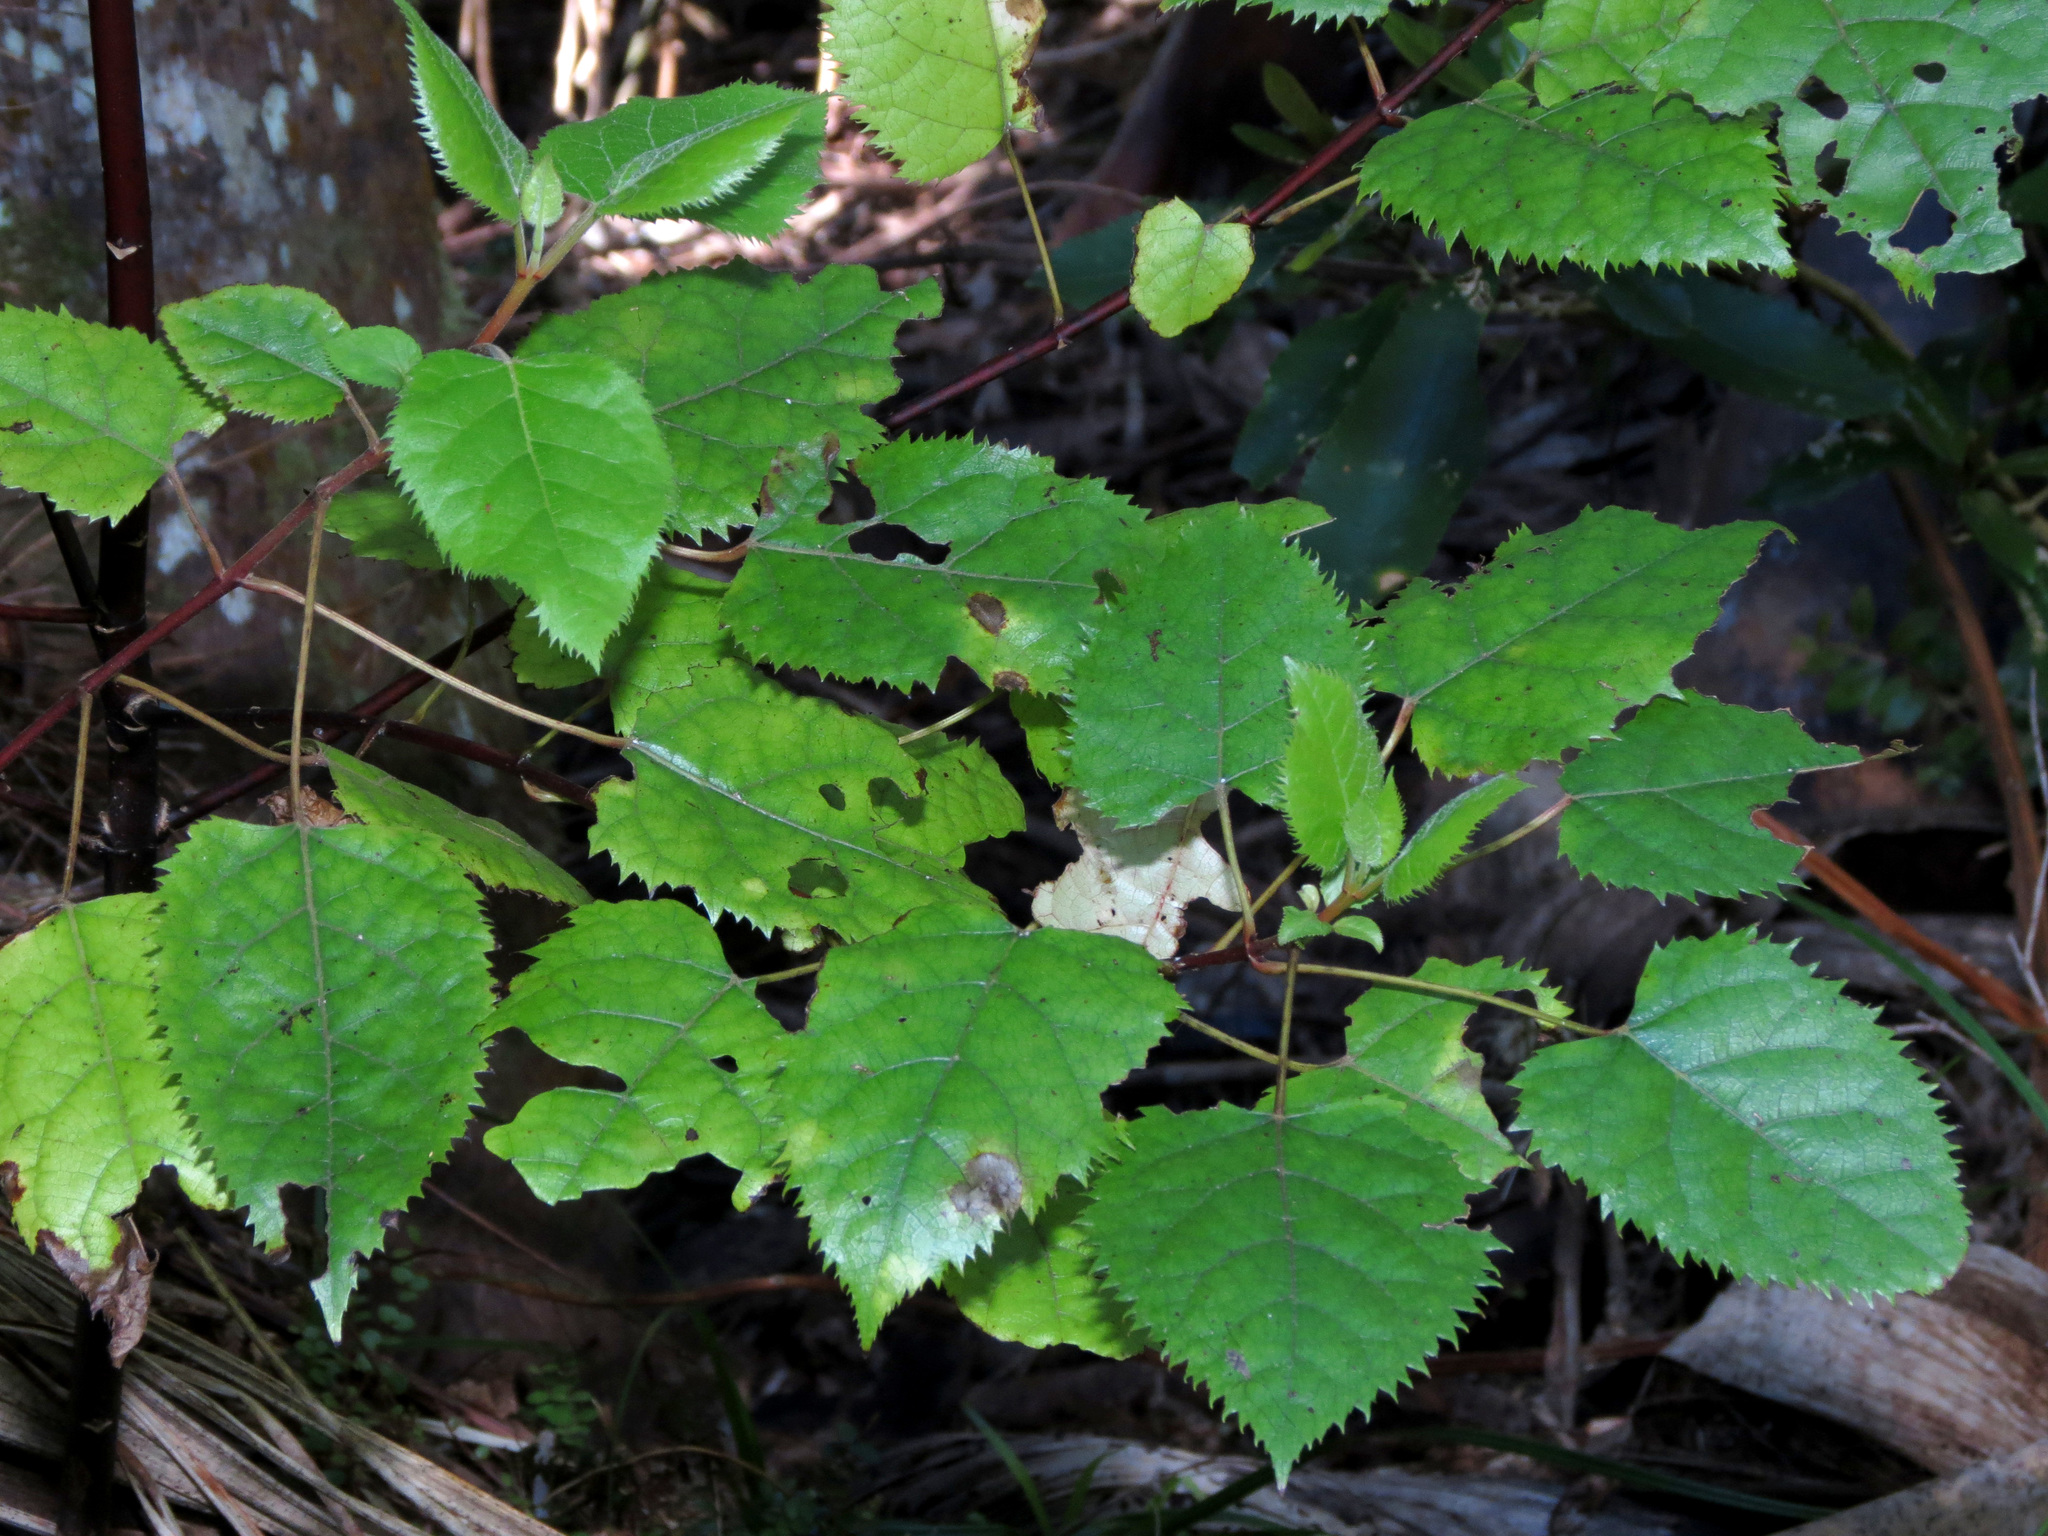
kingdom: Plantae
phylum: Tracheophyta
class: Magnoliopsida
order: Oxalidales
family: Elaeocarpaceae
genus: Aristotelia
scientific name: Aristotelia serrata
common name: New zealand wineberry
